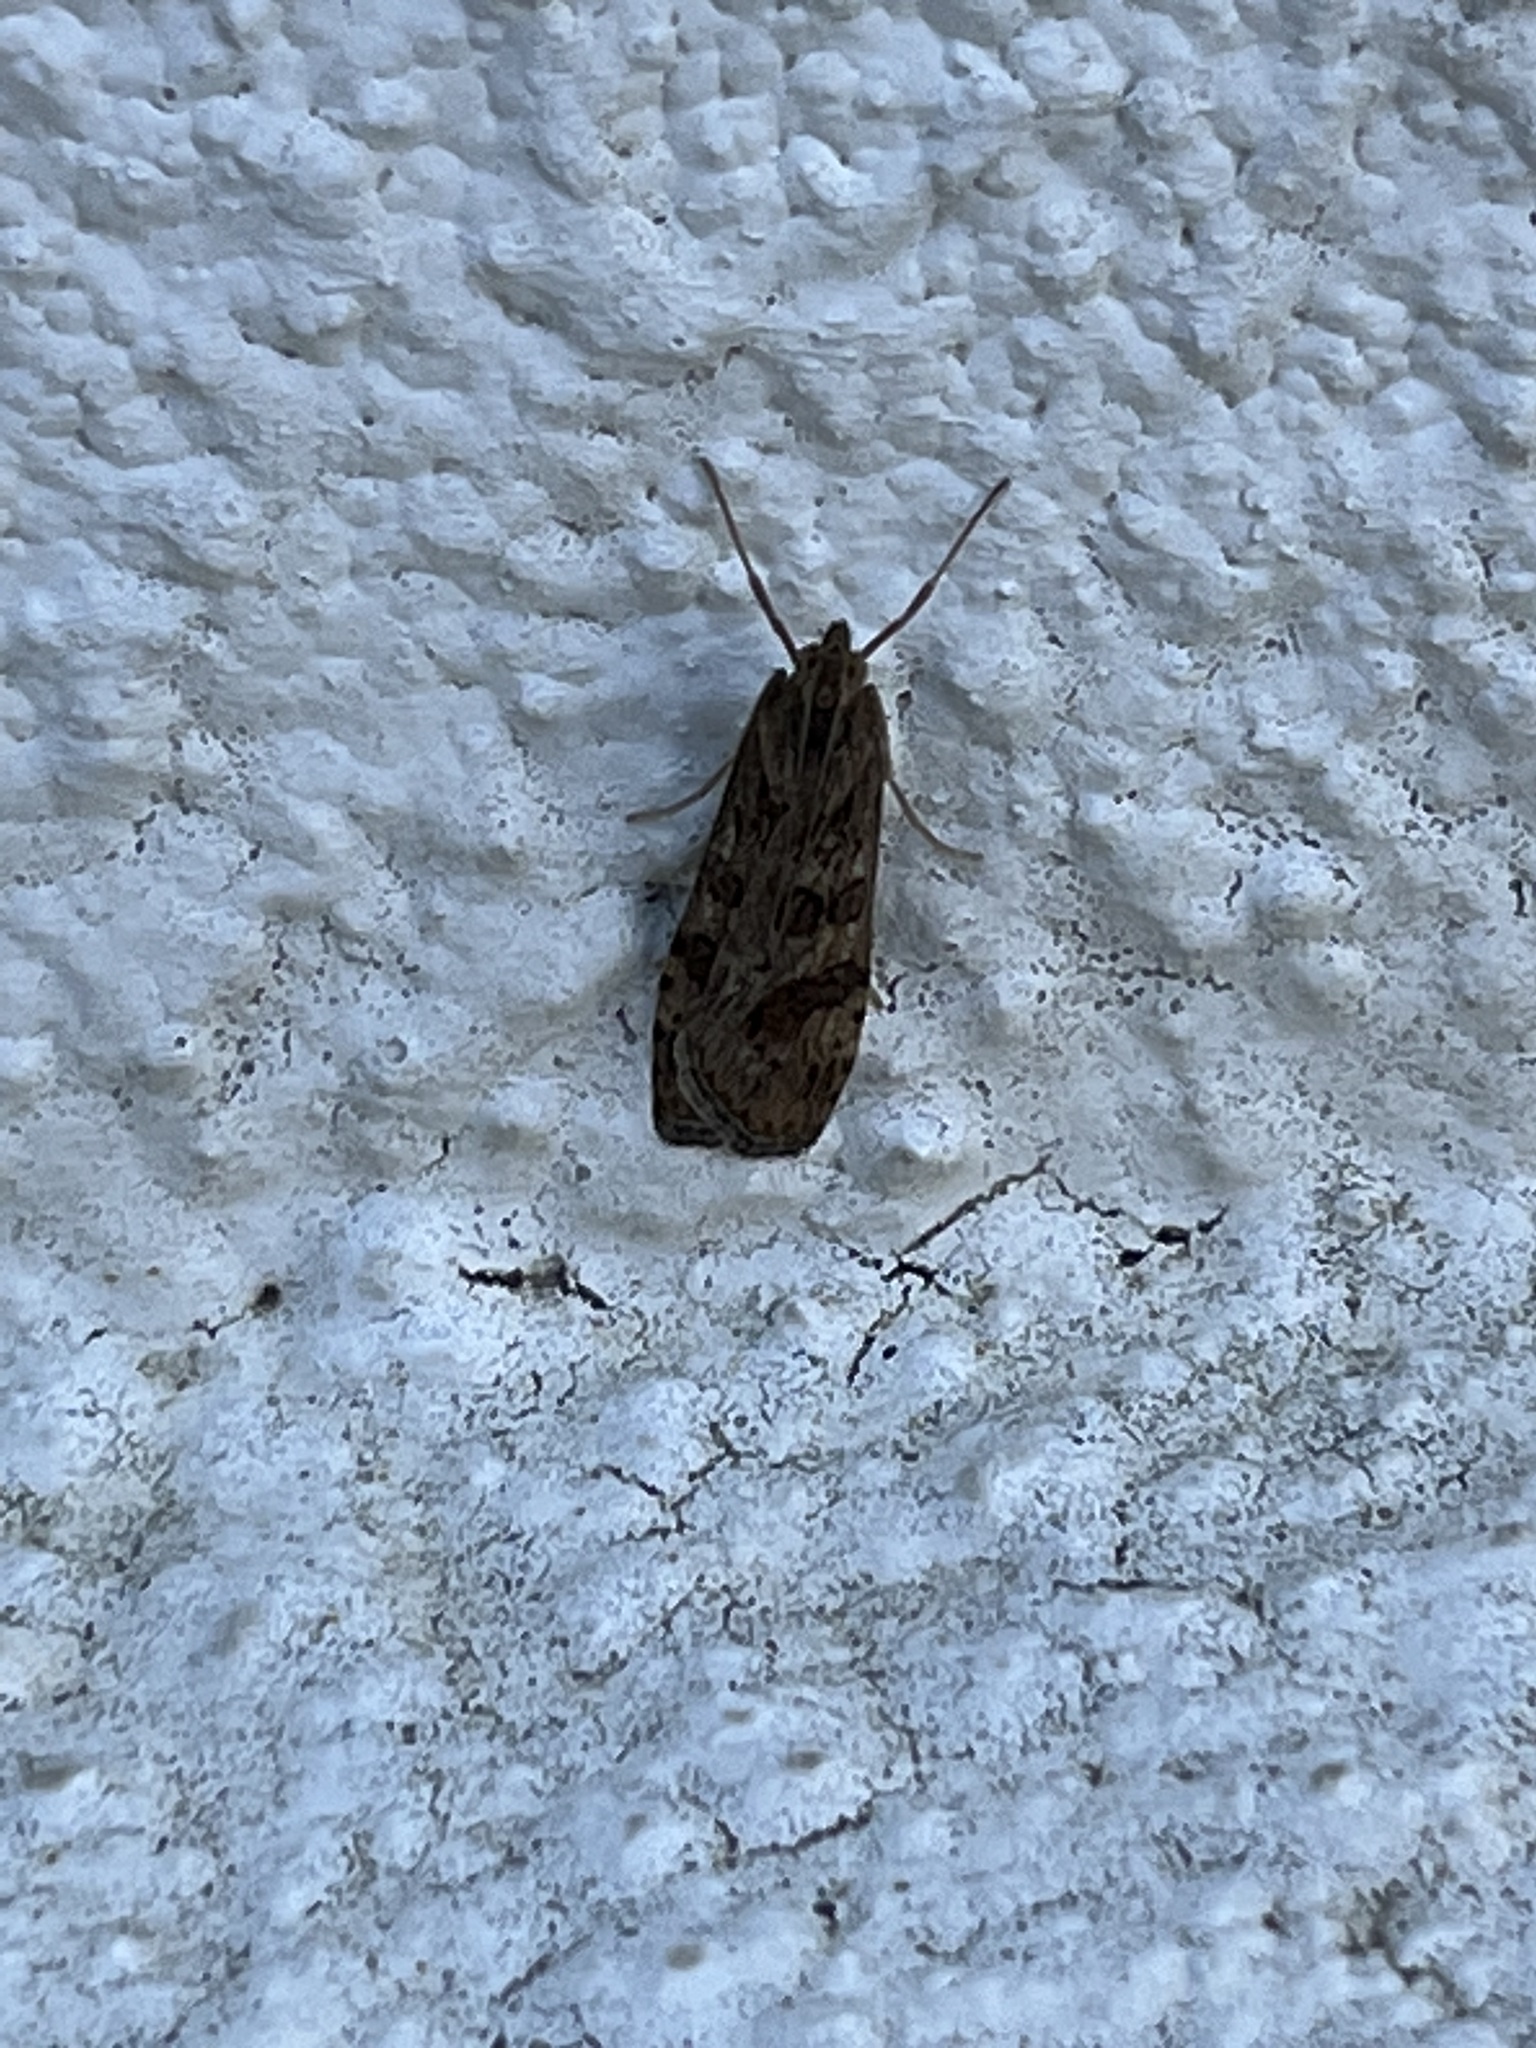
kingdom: Animalia
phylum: Arthropoda
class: Insecta
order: Lepidoptera
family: Crambidae
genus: Nomophila
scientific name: Nomophila noctuella
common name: Rush veneer
